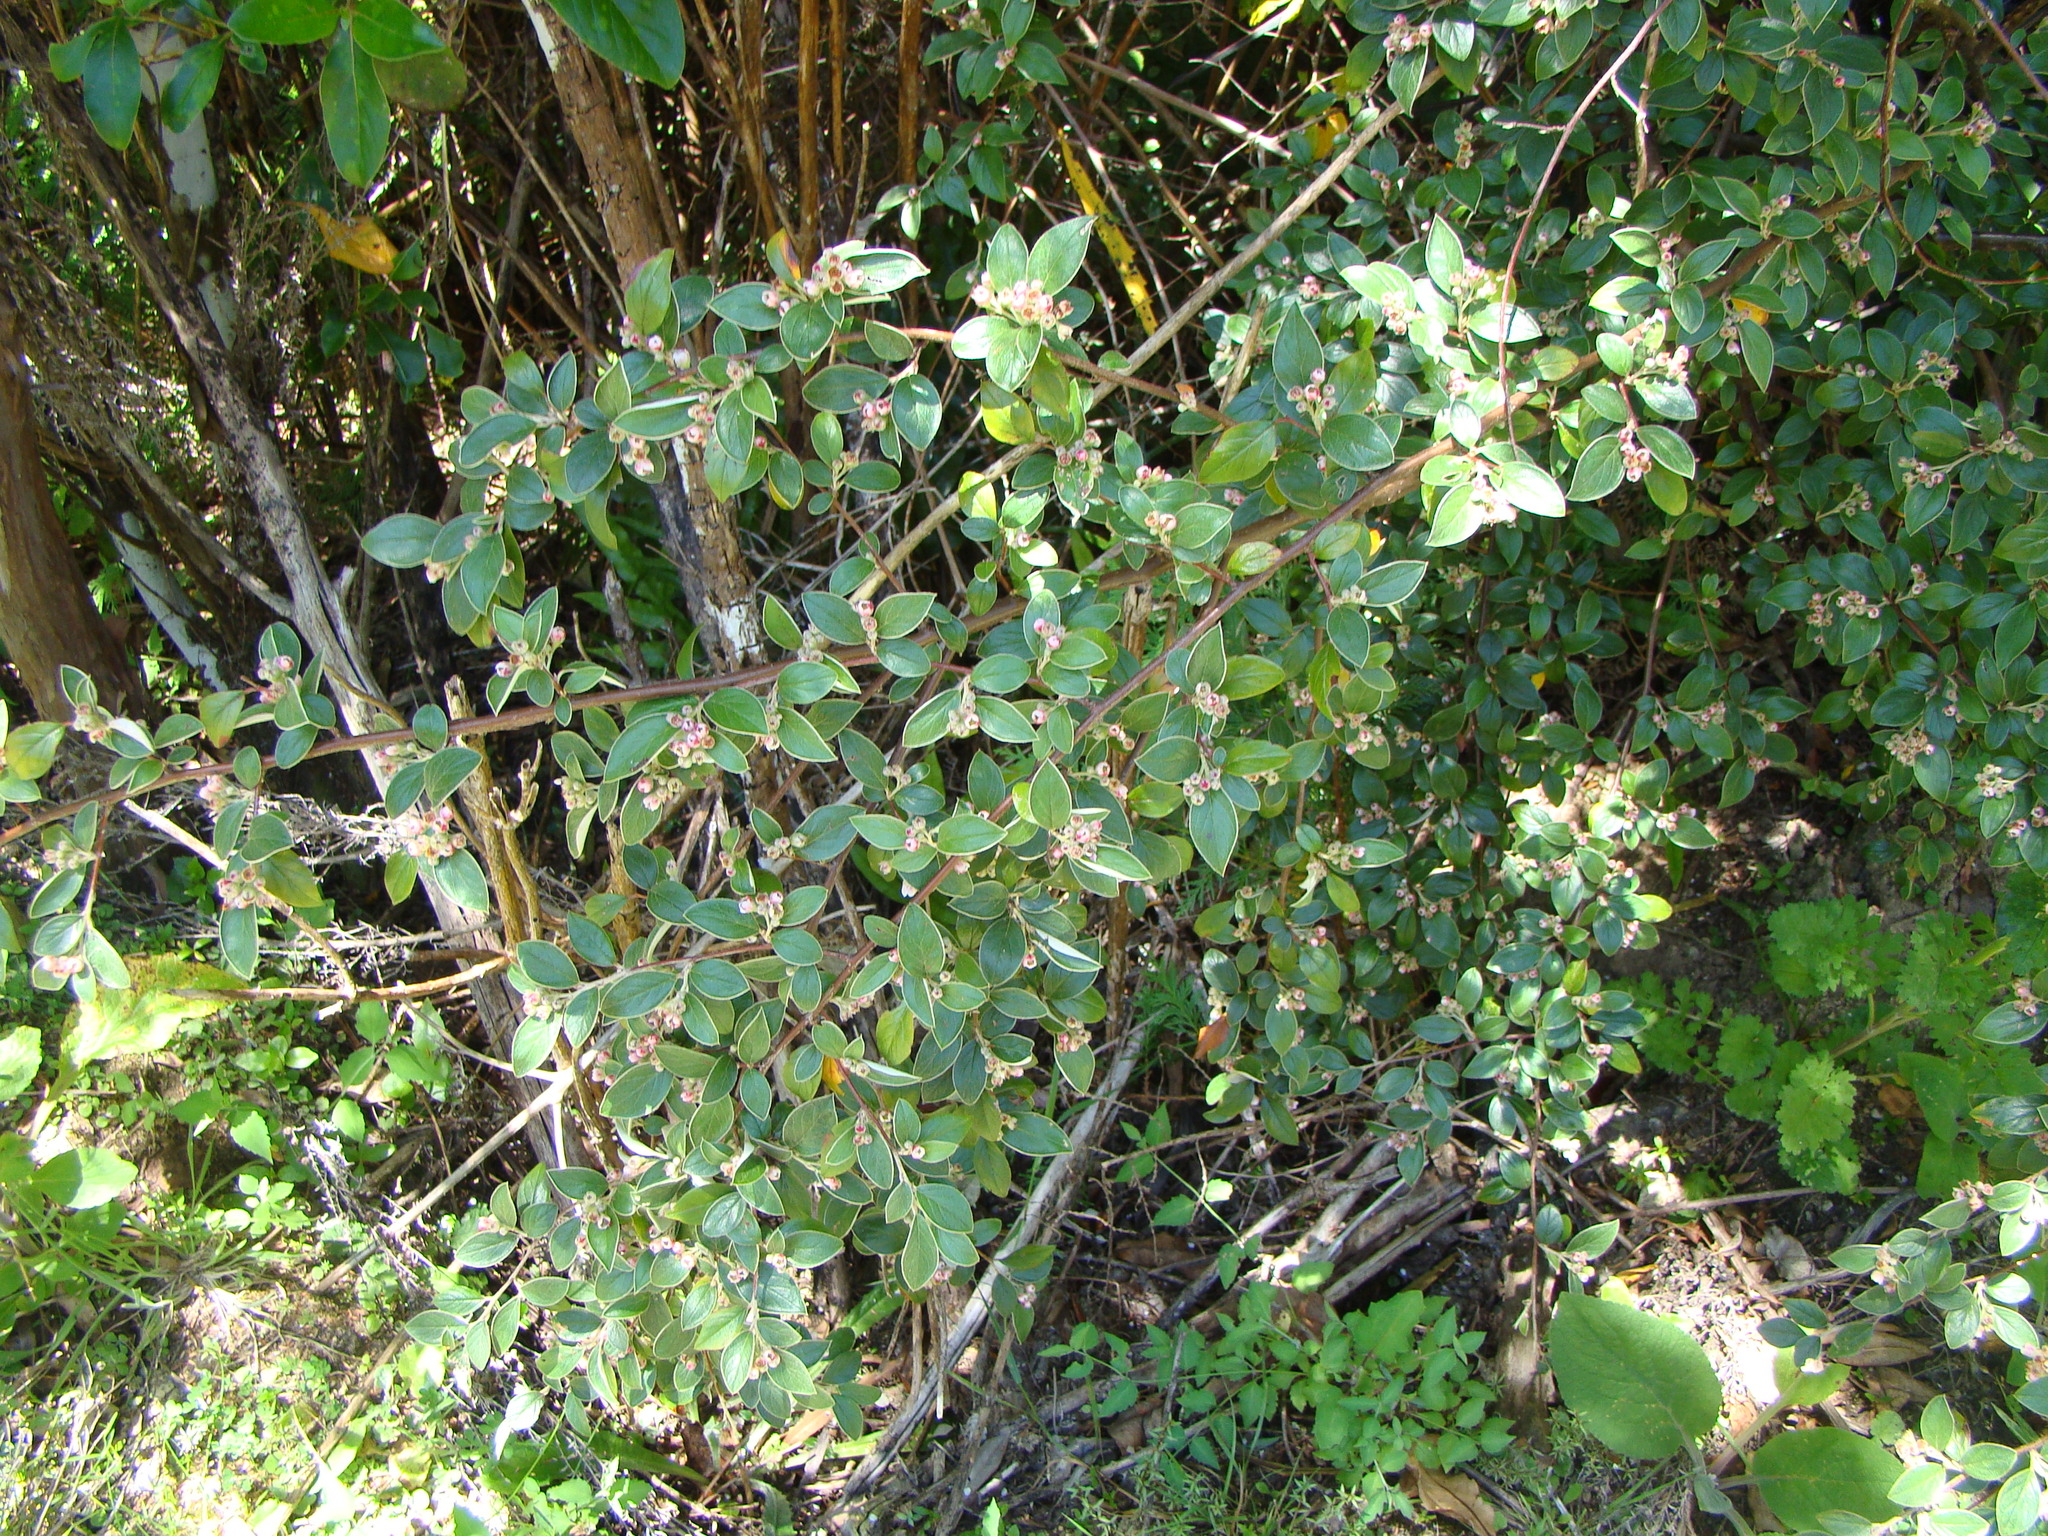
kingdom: Plantae
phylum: Tracheophyta
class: Magnoliopsida
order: Rosales
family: Rosaceae
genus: Cotoneaster
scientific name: Cotoneaster franchetii
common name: Franchet's cotoneaster
